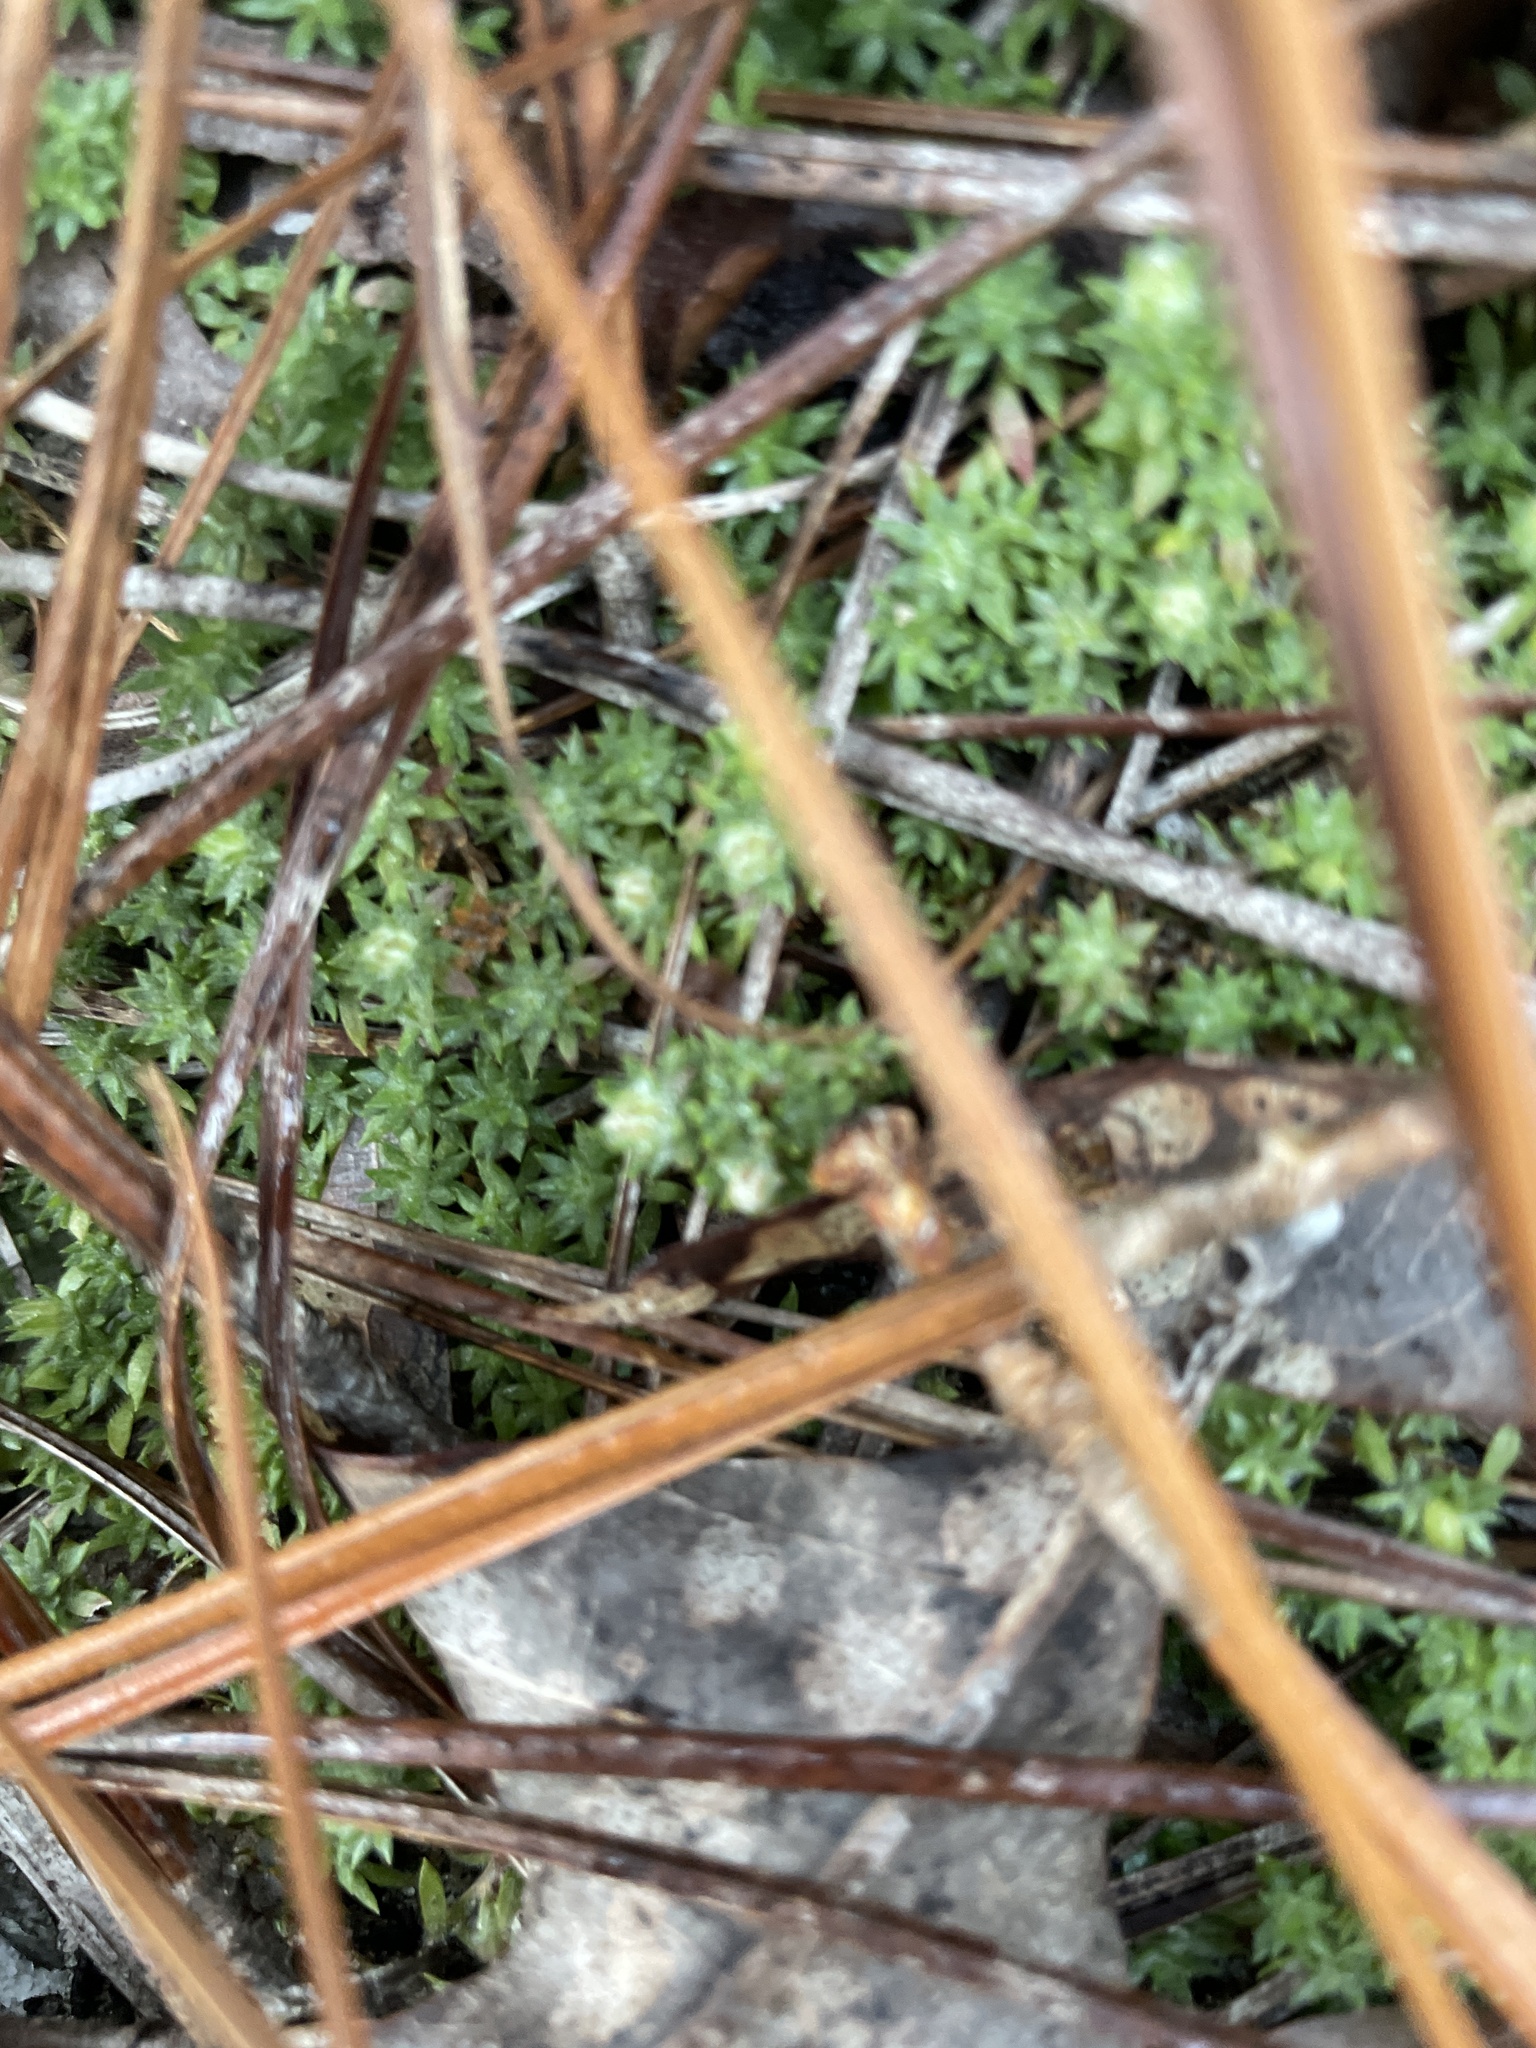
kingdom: Plantae
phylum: Tracheophyta
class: Magnoliopsida
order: Ericales
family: Diapensiaceae
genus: Pyxidanthera
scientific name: Pyxidanthera brevifolia
